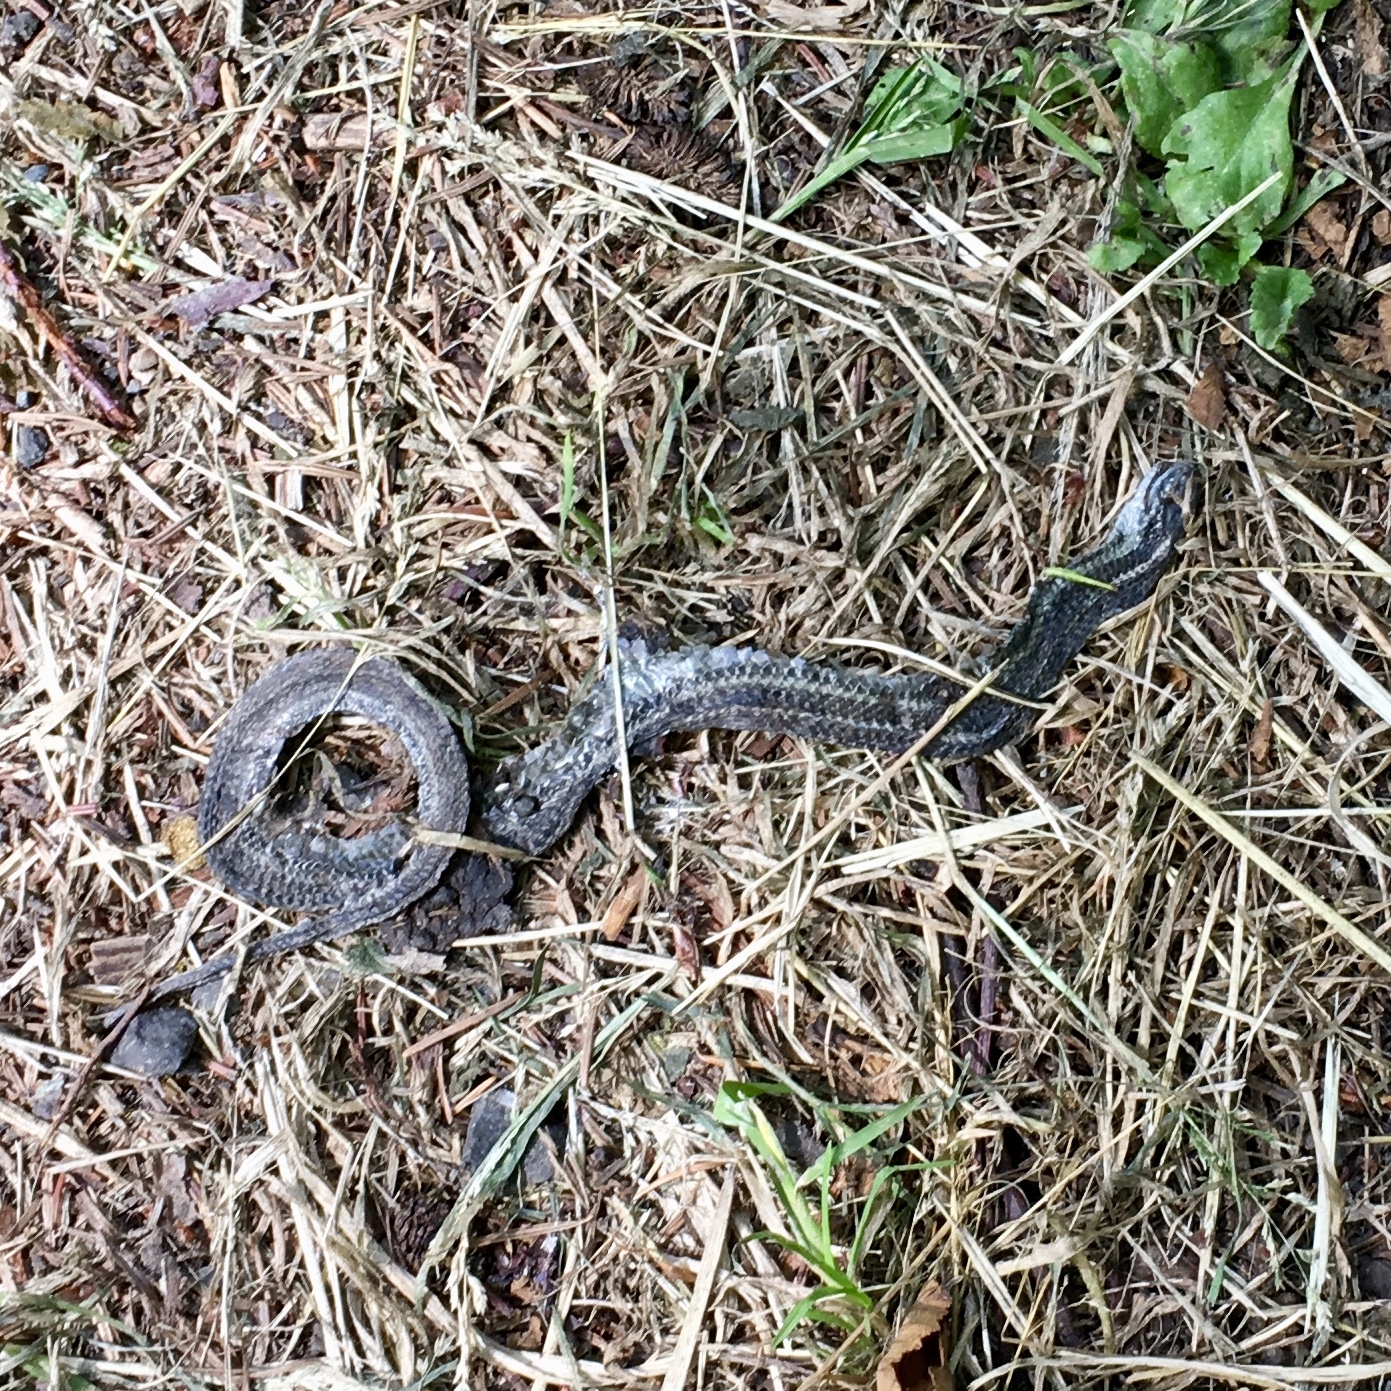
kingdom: Animalia
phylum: Chordata
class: Squamata
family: Colubridae
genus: Thamnophis
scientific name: Thamnophis
